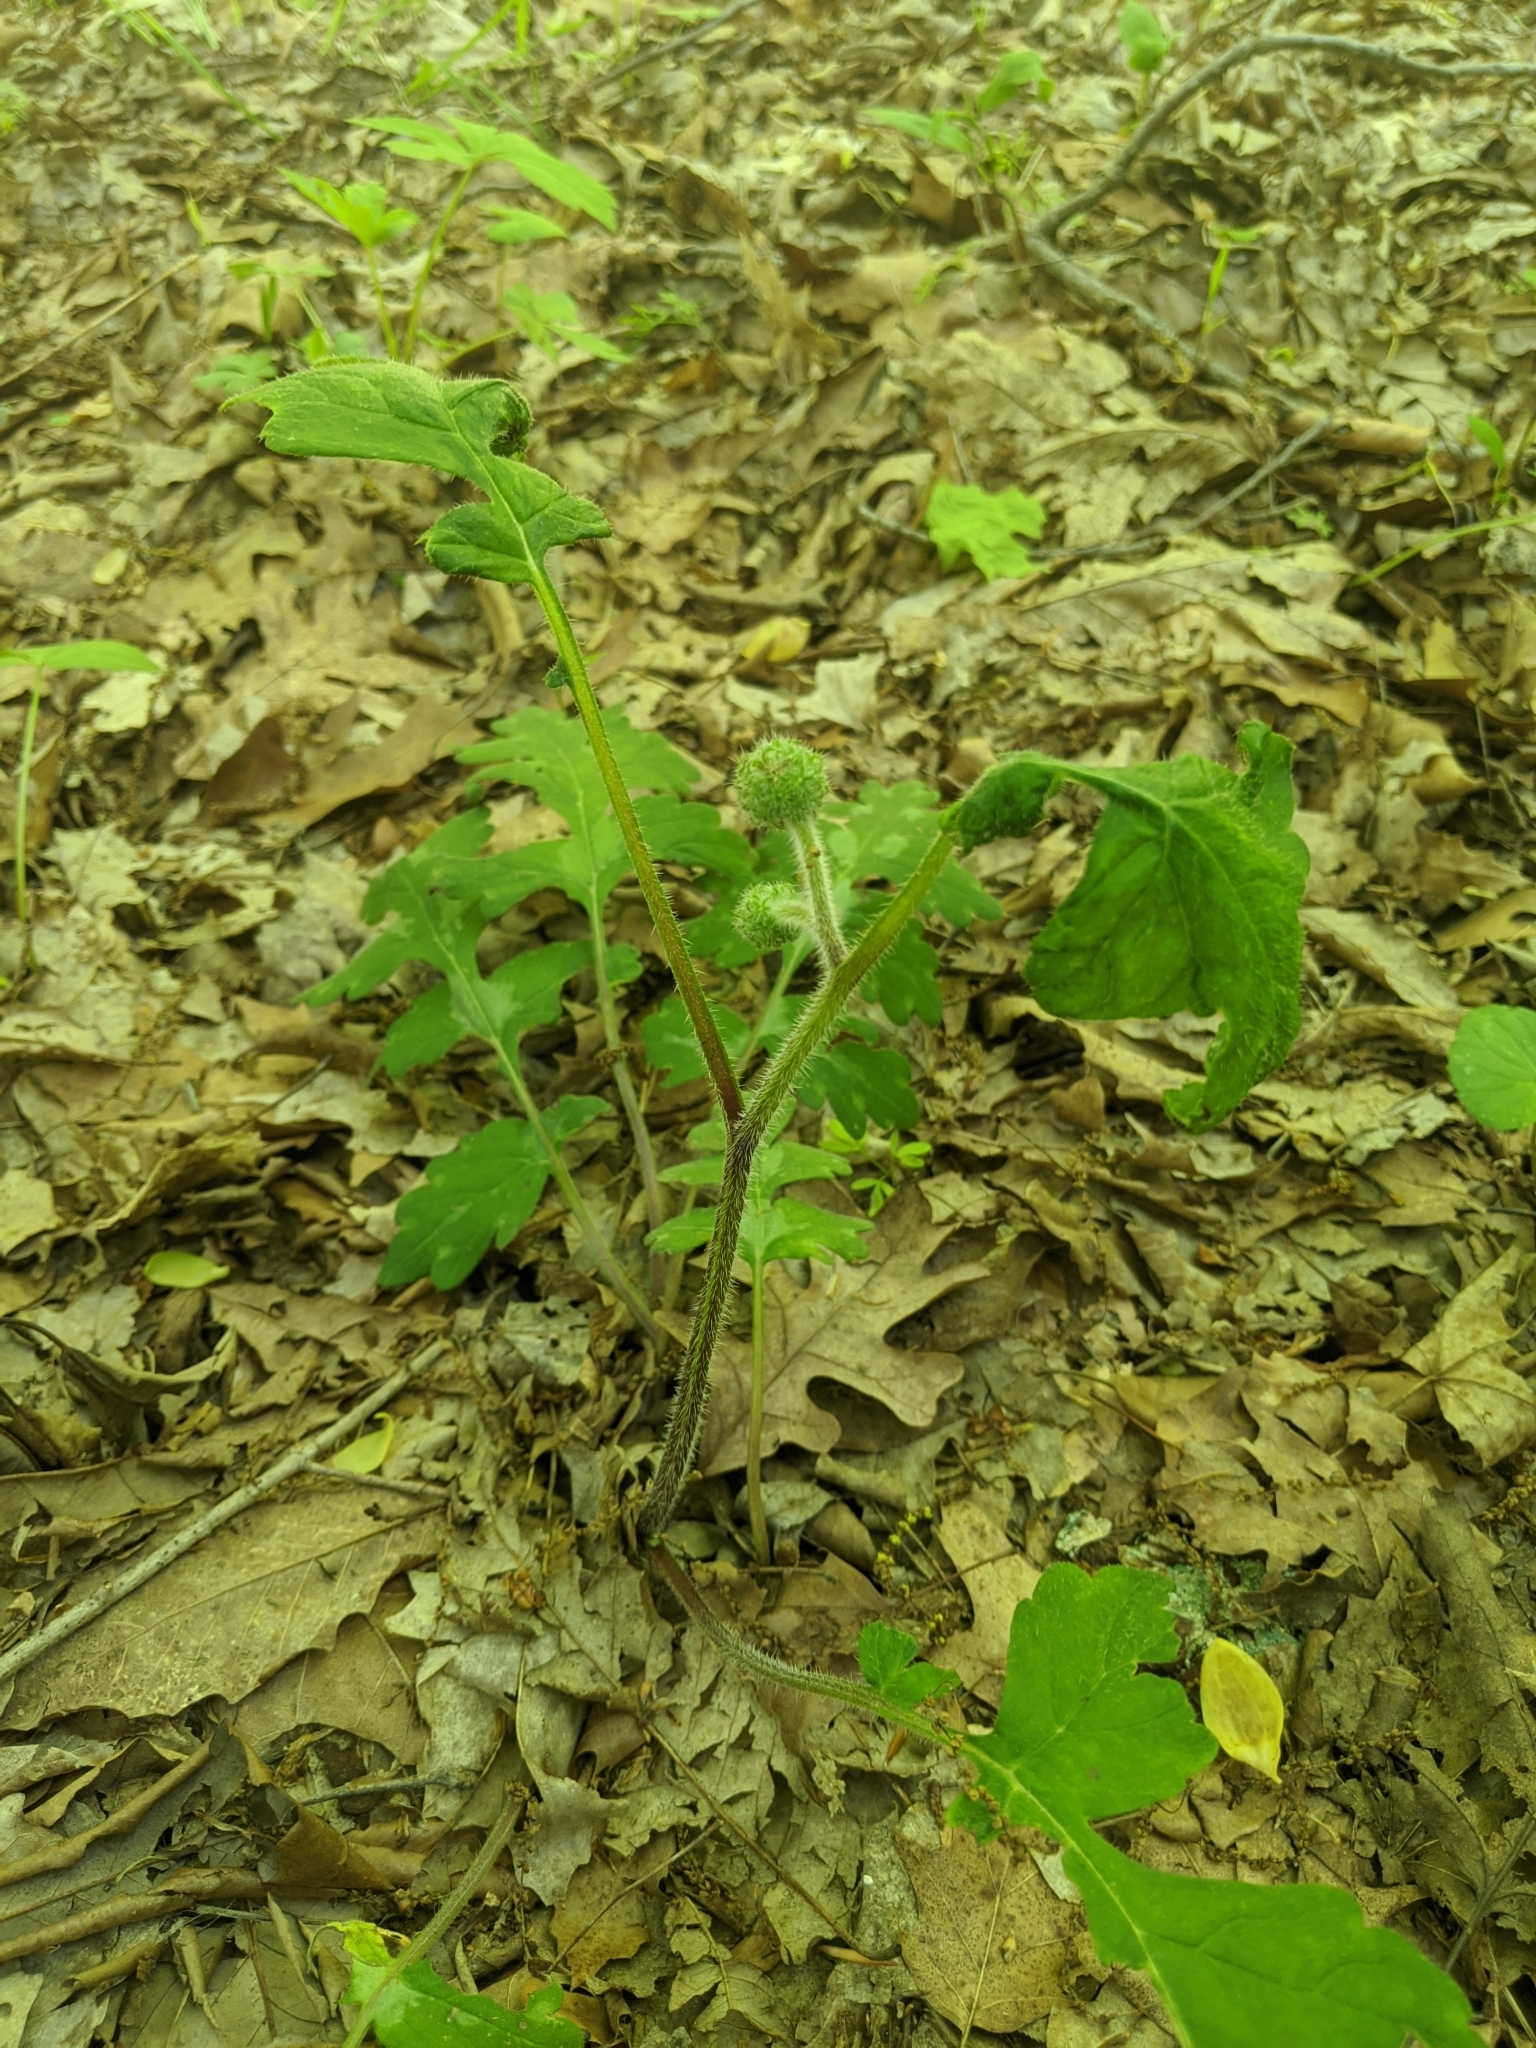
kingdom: Plantae
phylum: Tracheophyta
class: Magnoliopsida
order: Boraginales
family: Hydrophyllaceae
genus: Hydrophyllum
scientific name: Hydrophyllum macrophyllum
